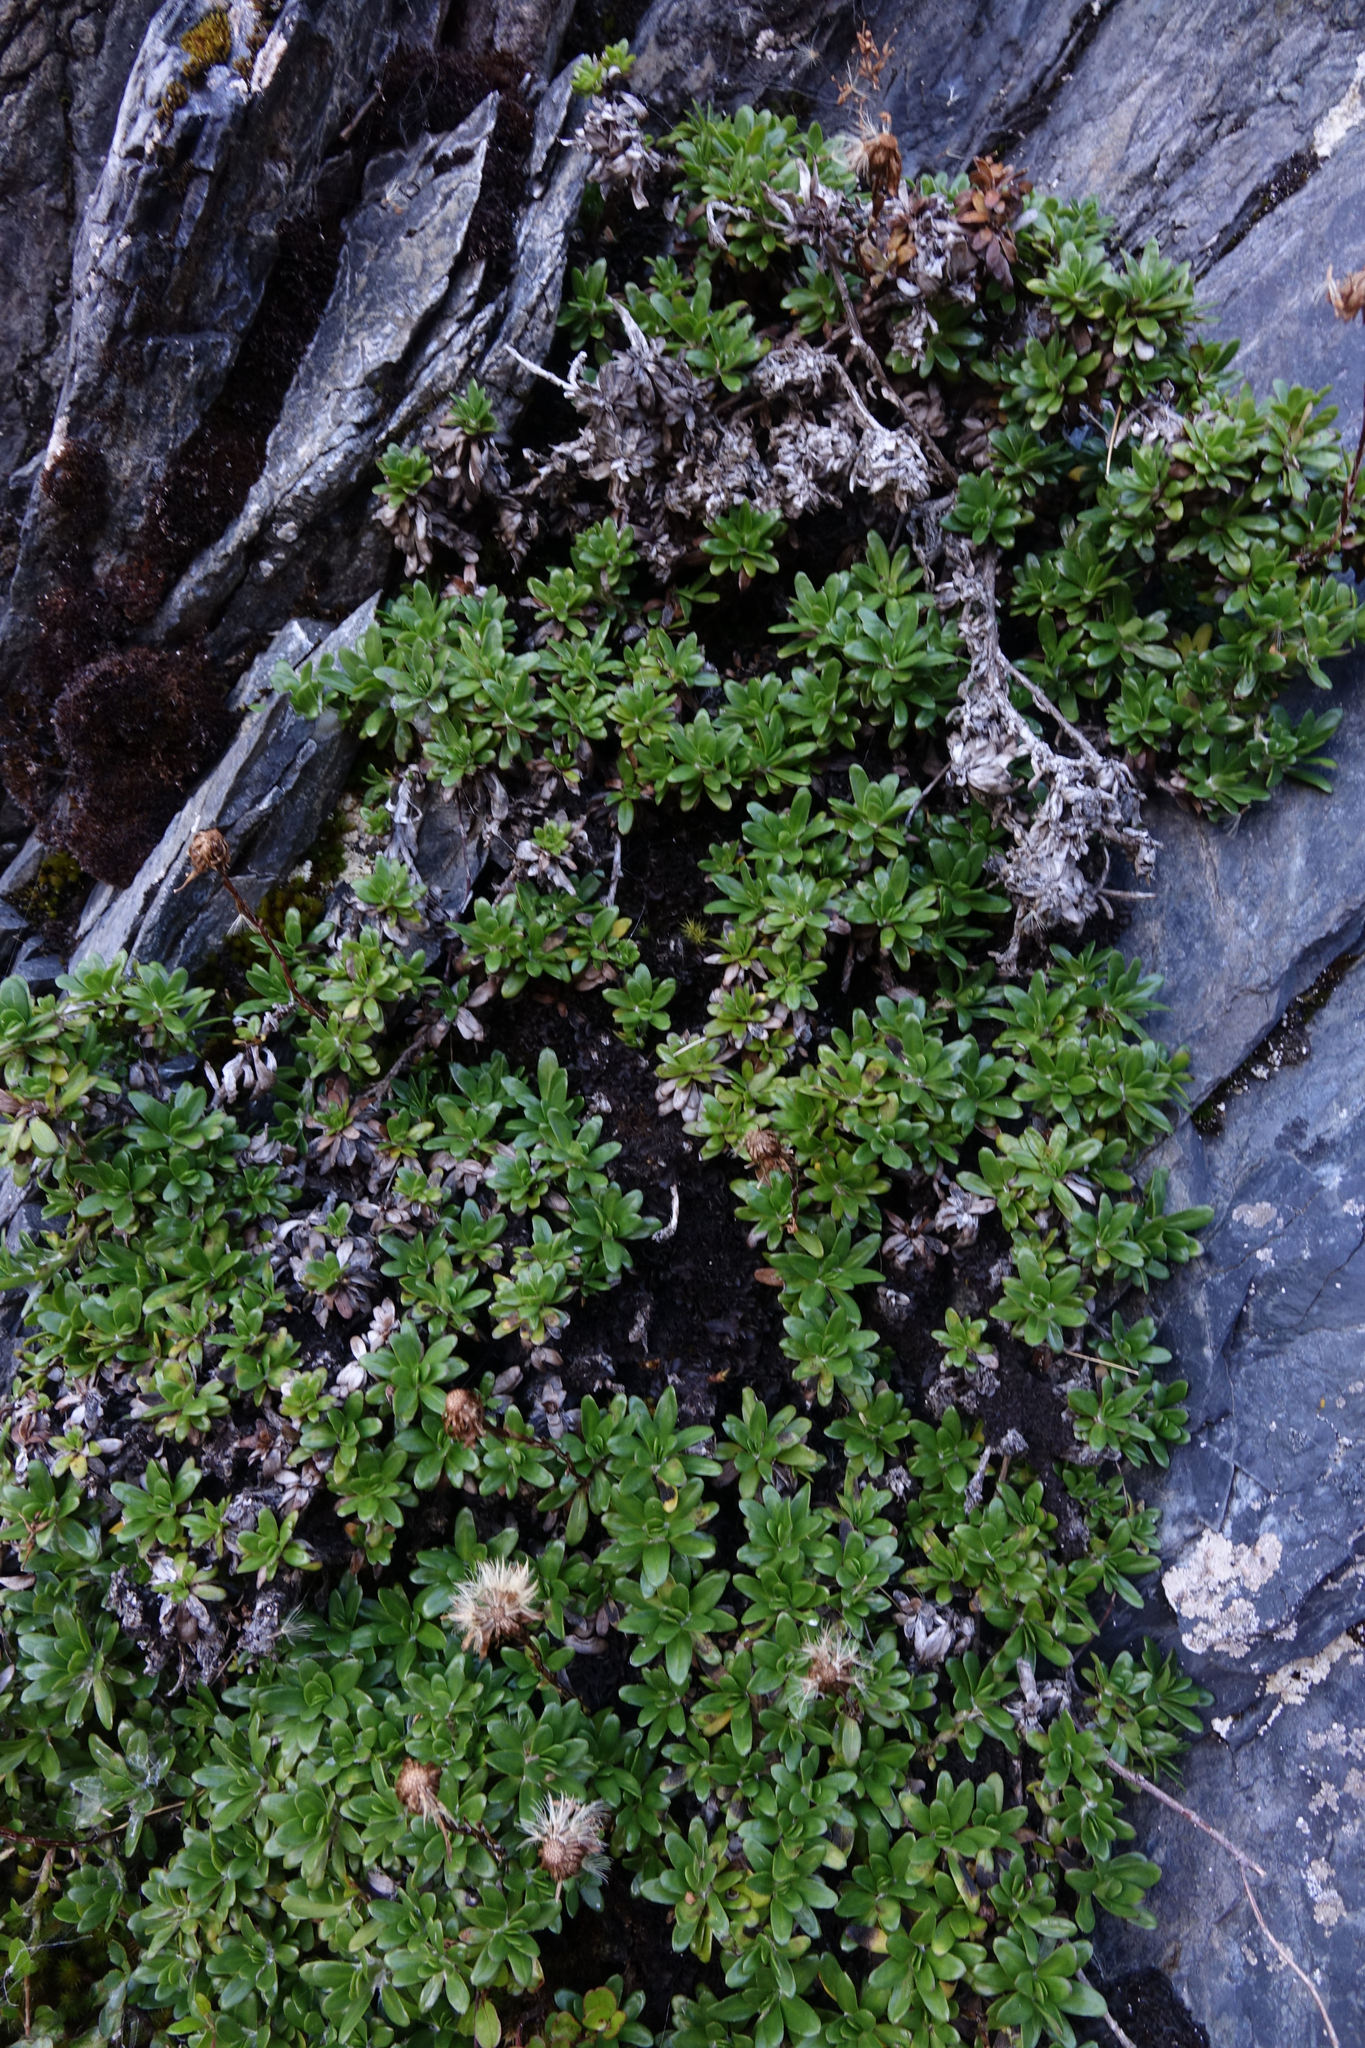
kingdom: Plantae
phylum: Tracheophyta
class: Magnoliopsida
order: Asterales
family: Asteraceae
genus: Celmisia
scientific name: Celmisia bellidioides
